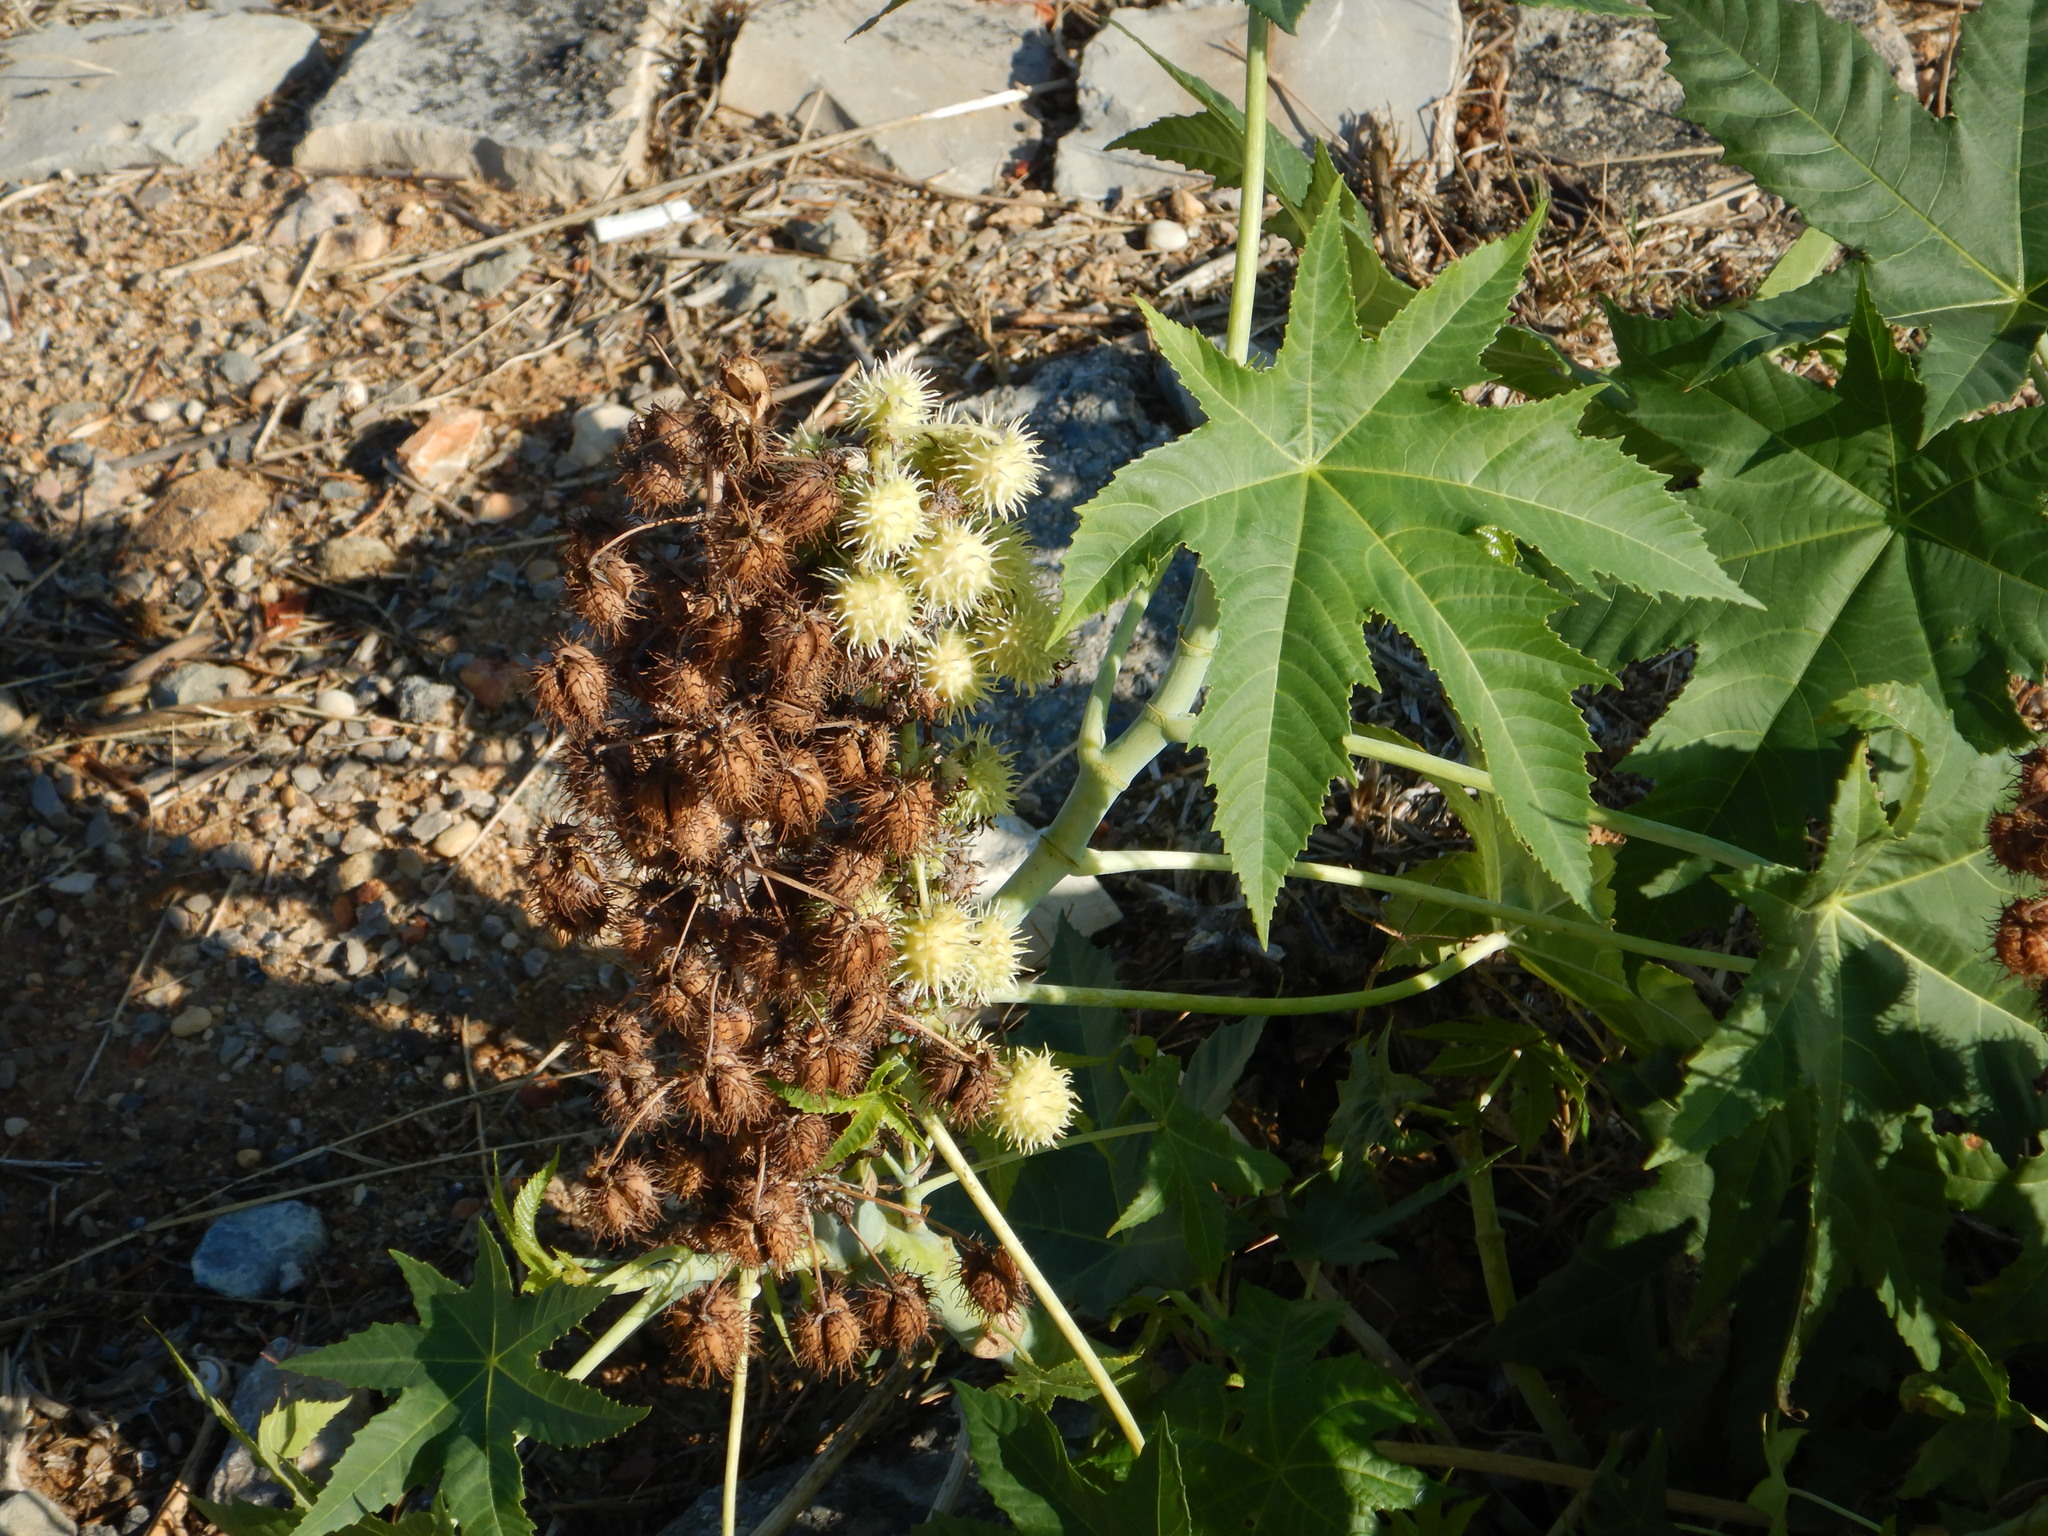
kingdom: Plantae
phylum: Tracheophyta
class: Magnoliopsida
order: Malpighiales
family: Euphorbiaceae
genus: Ricinus
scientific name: Ricinus communis
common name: Castor-oil-plant
